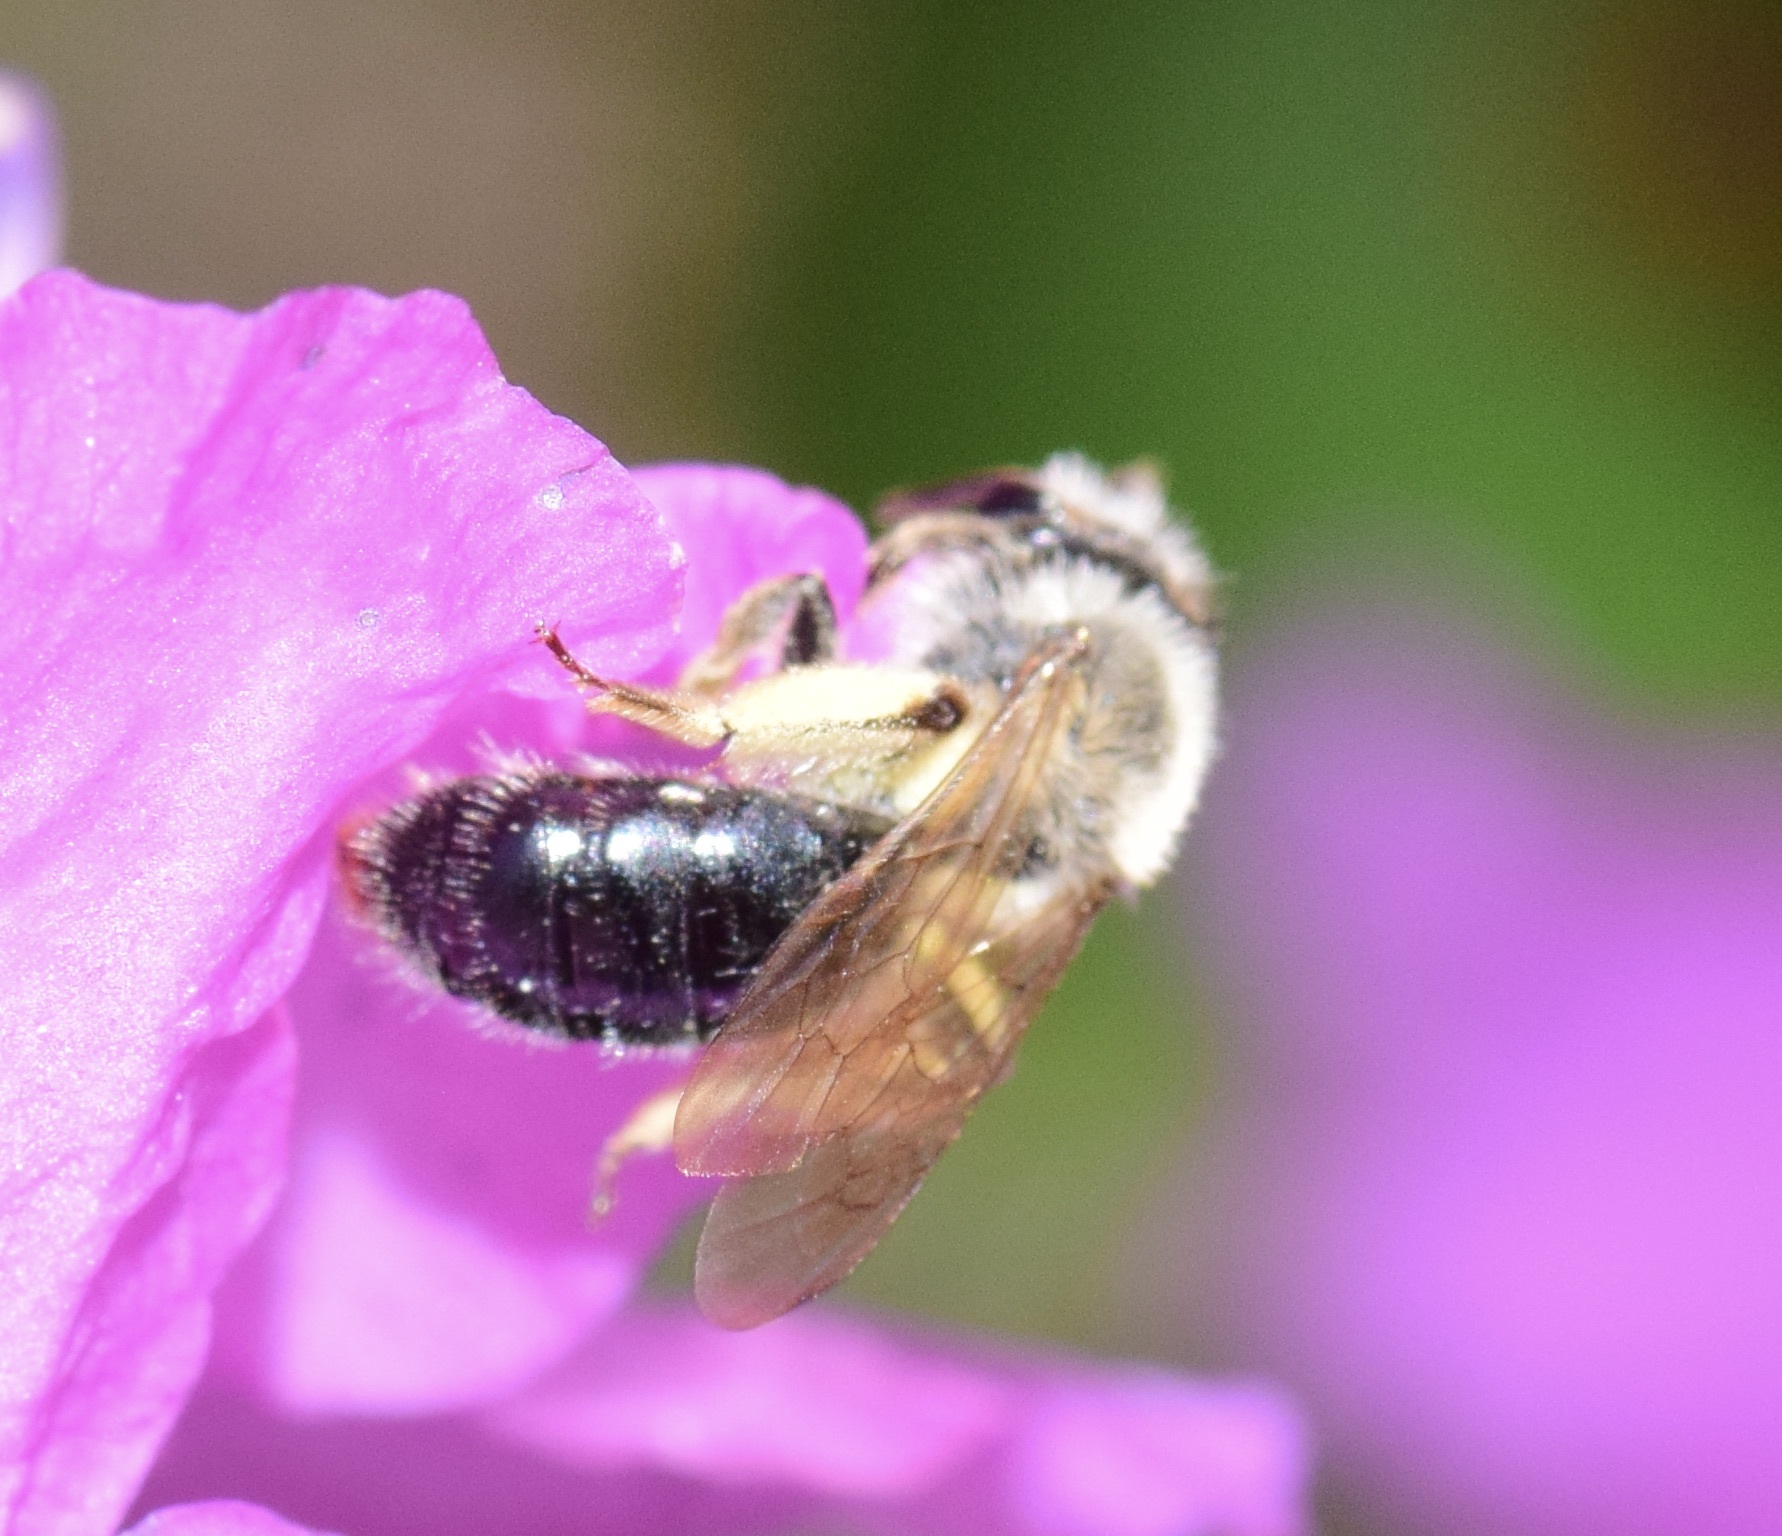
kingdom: Animalia
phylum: Arthropoda
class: Insecta
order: Hymenoptera
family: Andrenidae
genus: Andrena
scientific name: Andrena rufosignata
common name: Brown-fovea miner
